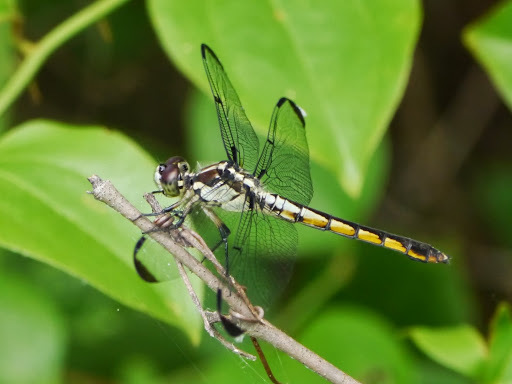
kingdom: Animalia
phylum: Arthropoda
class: Insecta
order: Odonata
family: Libellulidae
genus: Libellula
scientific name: Libellula vibrans
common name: Great blue skimmer
